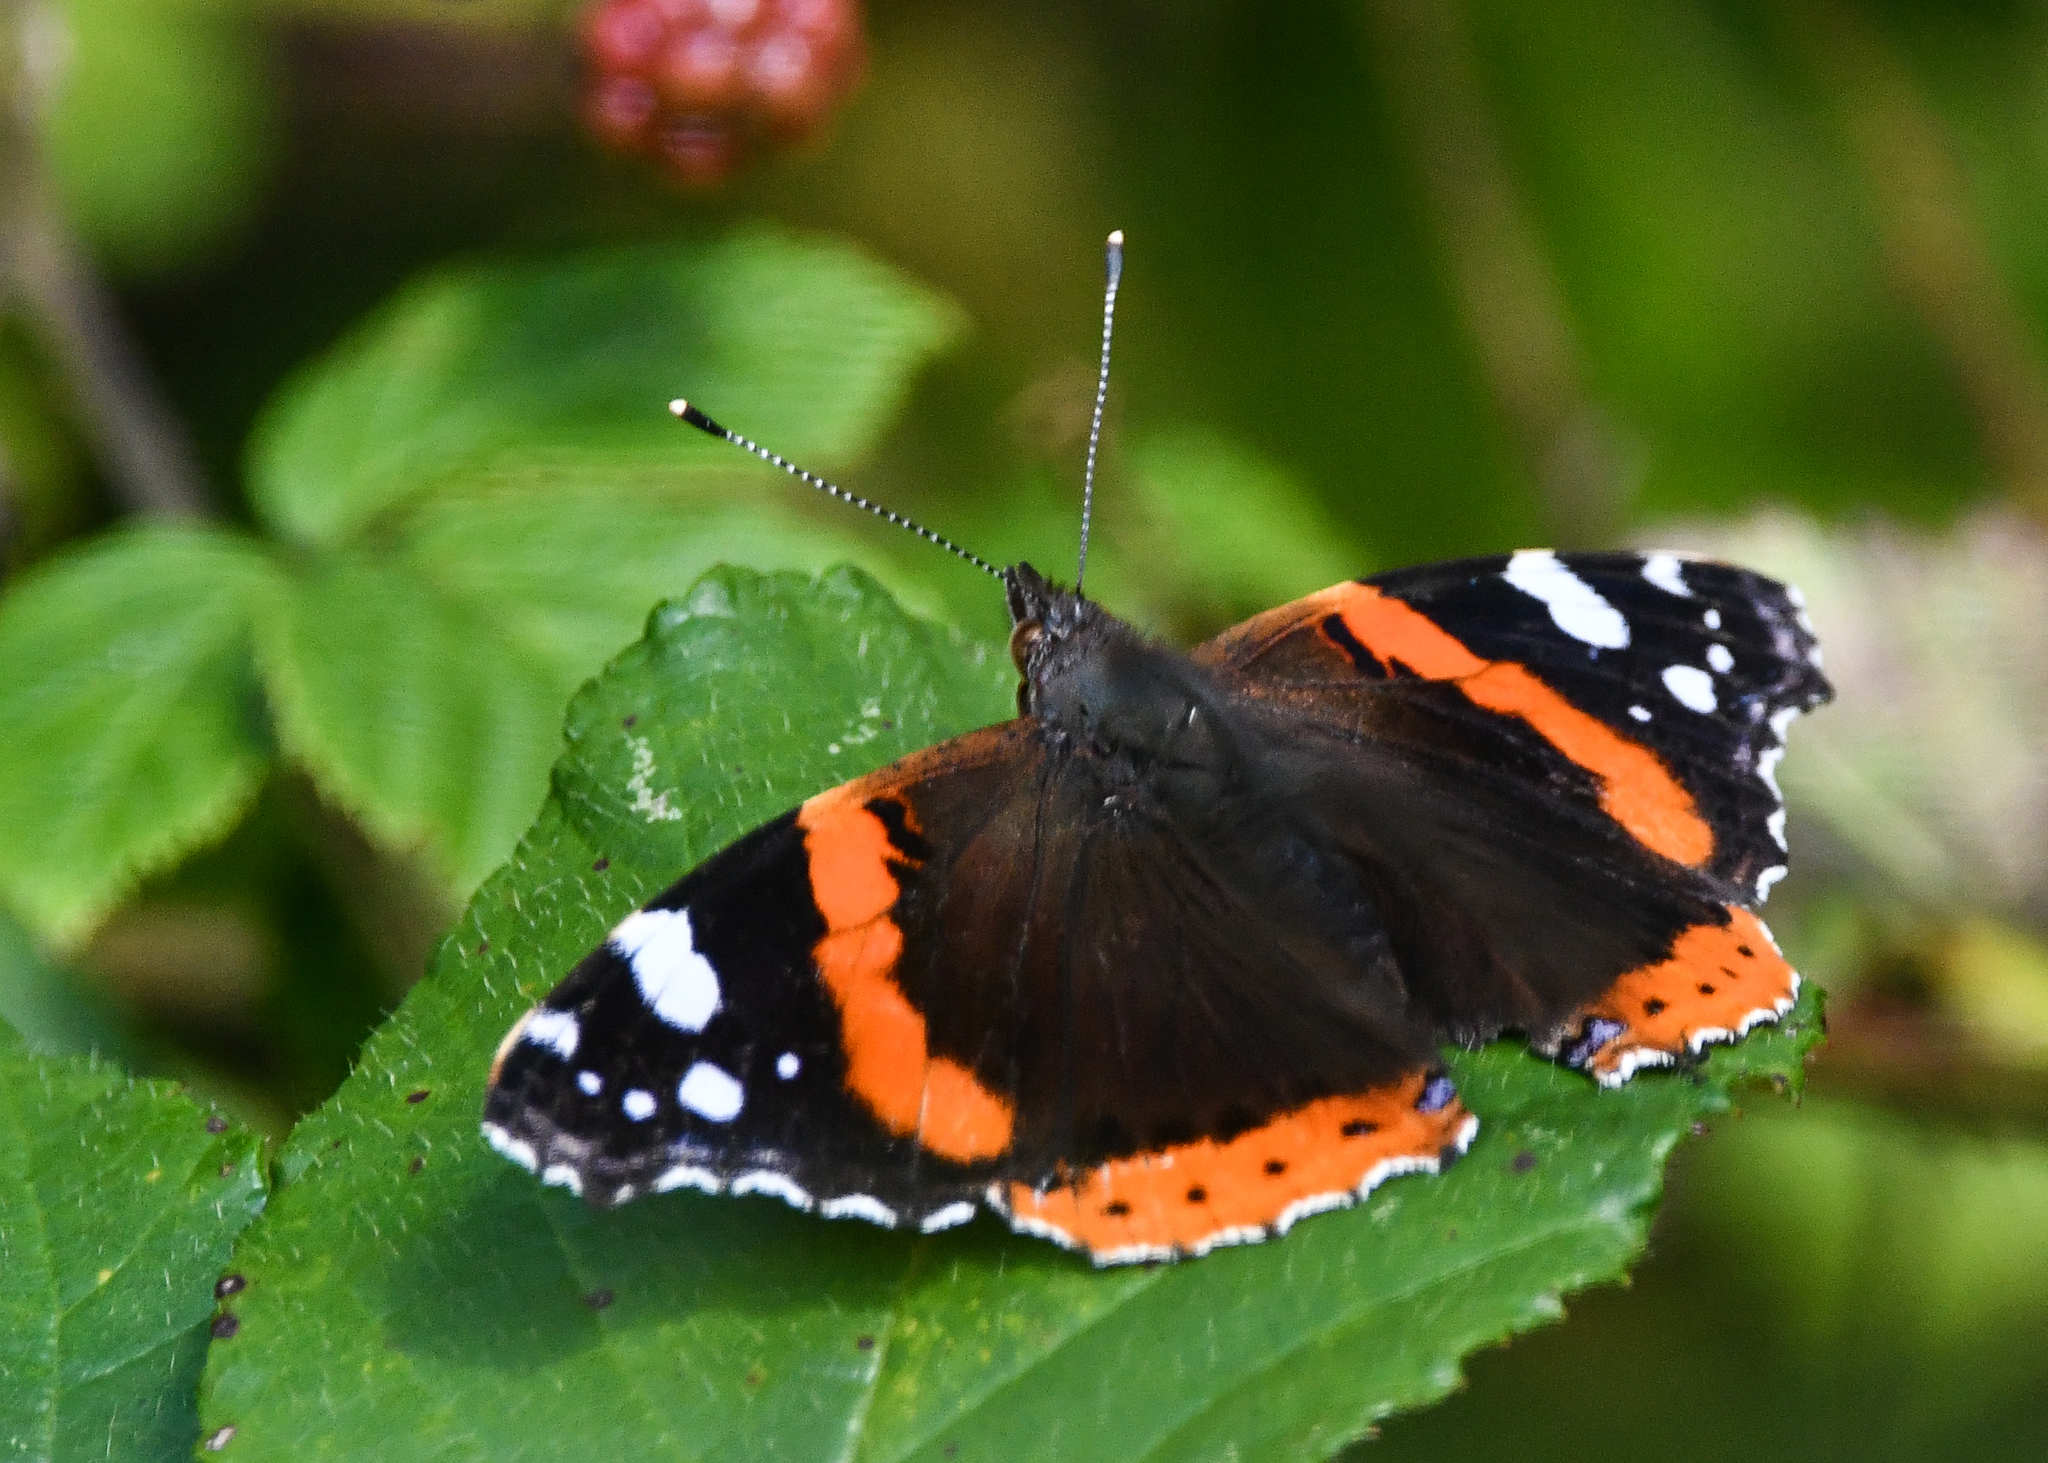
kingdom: Animalia
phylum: Arthropoda
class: Insecta
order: Lepidoptera
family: Nymphalidae
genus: Vanessa
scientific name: Vanessa atalanta
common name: Red admiral
